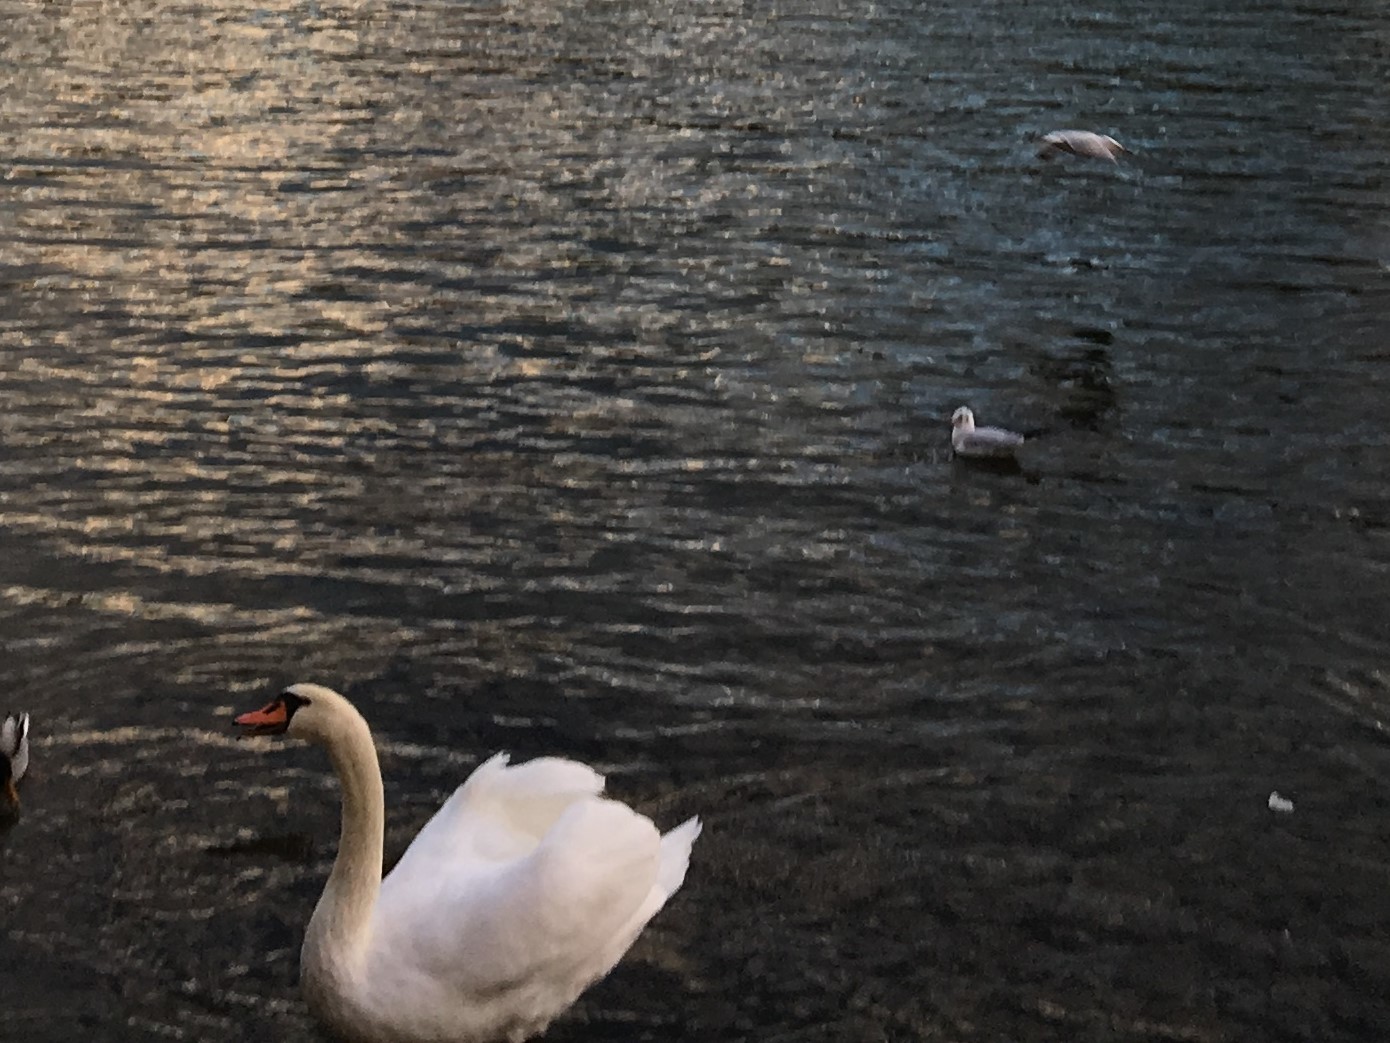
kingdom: Animalia
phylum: Chordata
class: Aves
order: Anseriformes
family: Anatidae
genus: Cygnus
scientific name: Cygnus olor
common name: Mute swan
